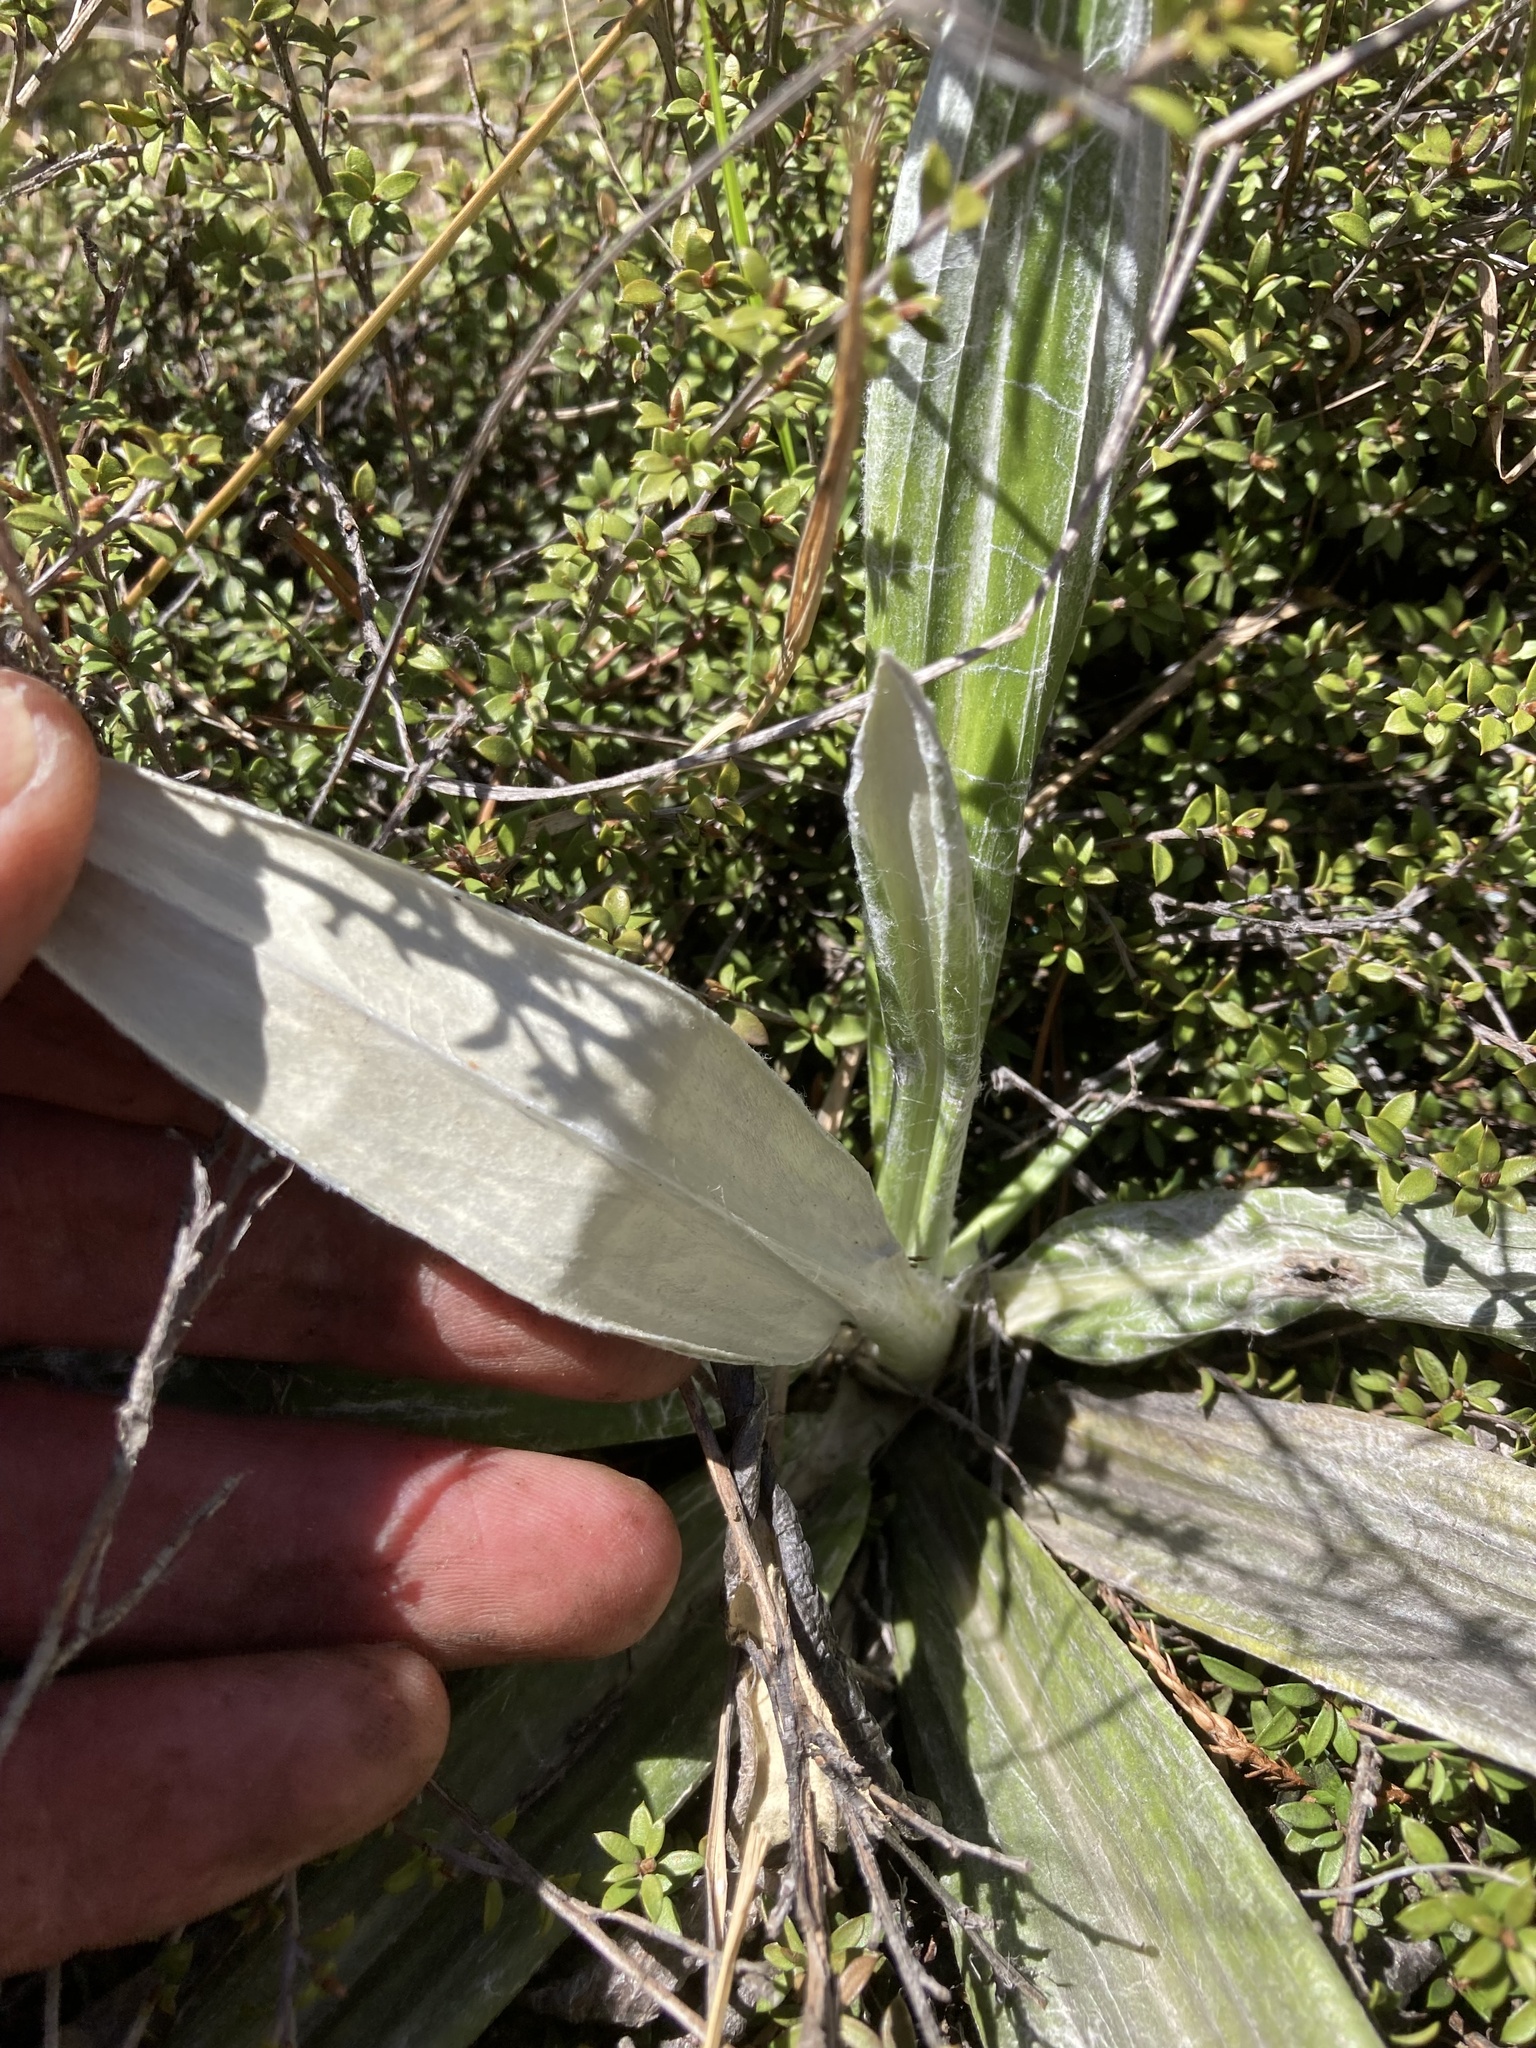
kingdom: Plantae
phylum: Tracheophyta
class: Magnoliopsida
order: Asterales
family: Asteraceae
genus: Celmisia
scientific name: Celmisia semicordata
